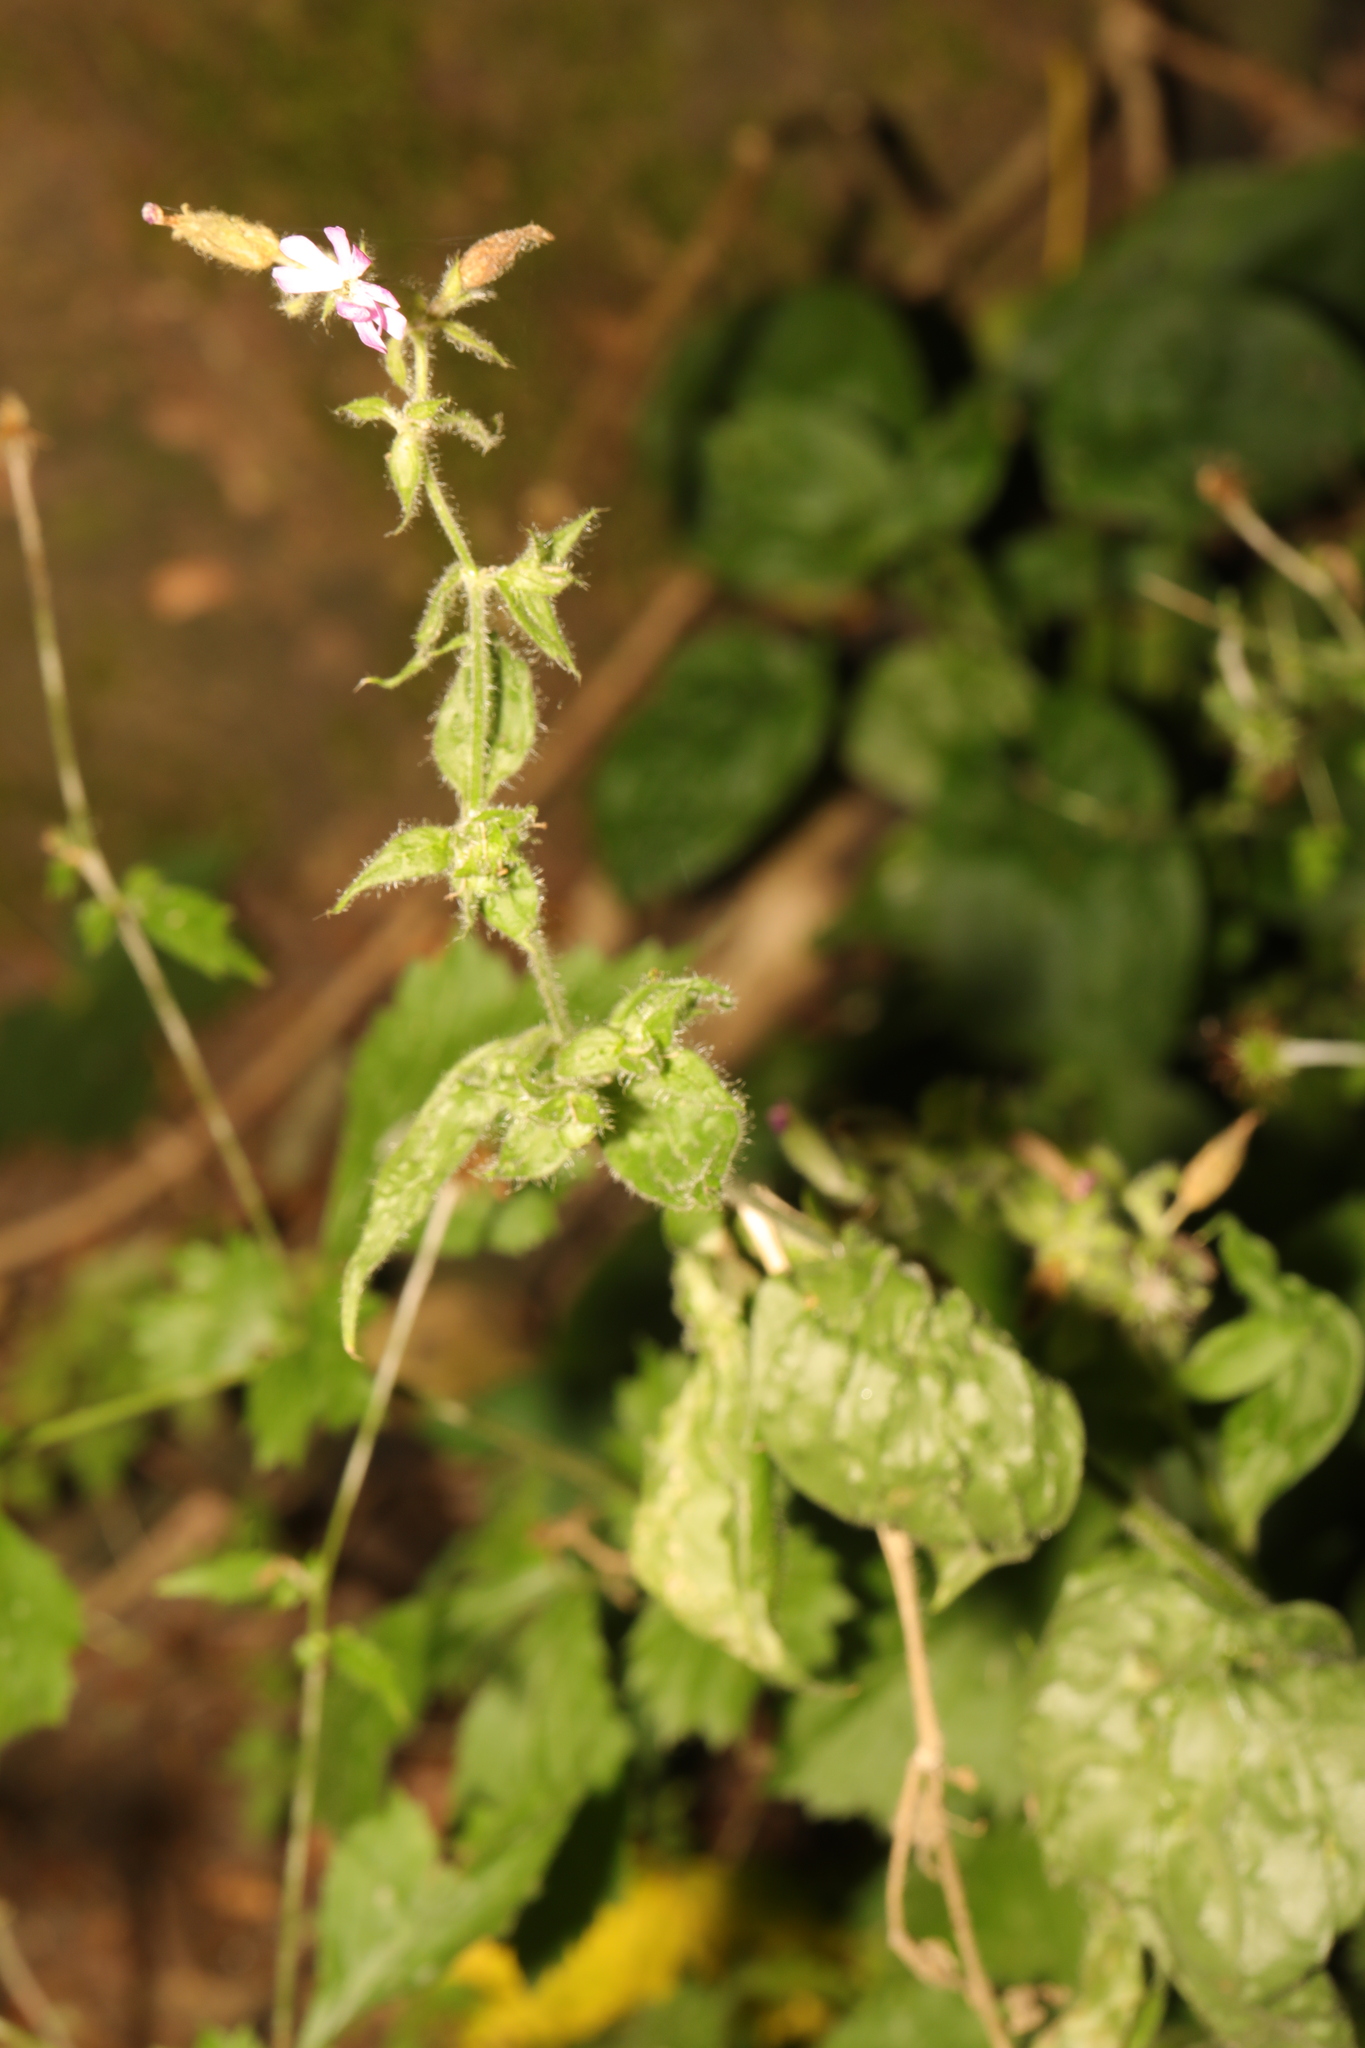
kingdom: Plantae
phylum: Tracheophyta
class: Magnoliopsida
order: Caryophyllales
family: Caryophyllaceae
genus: Silene
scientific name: Silene dioica
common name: Red campion
